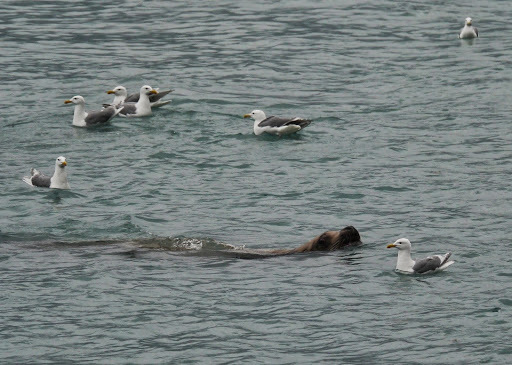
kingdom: Animalia
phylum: Chordata
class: Mammalia
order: Carnivora
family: Otariidae
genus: Eumetopias
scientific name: Eumetopias jubatus
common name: Steller sea lion
